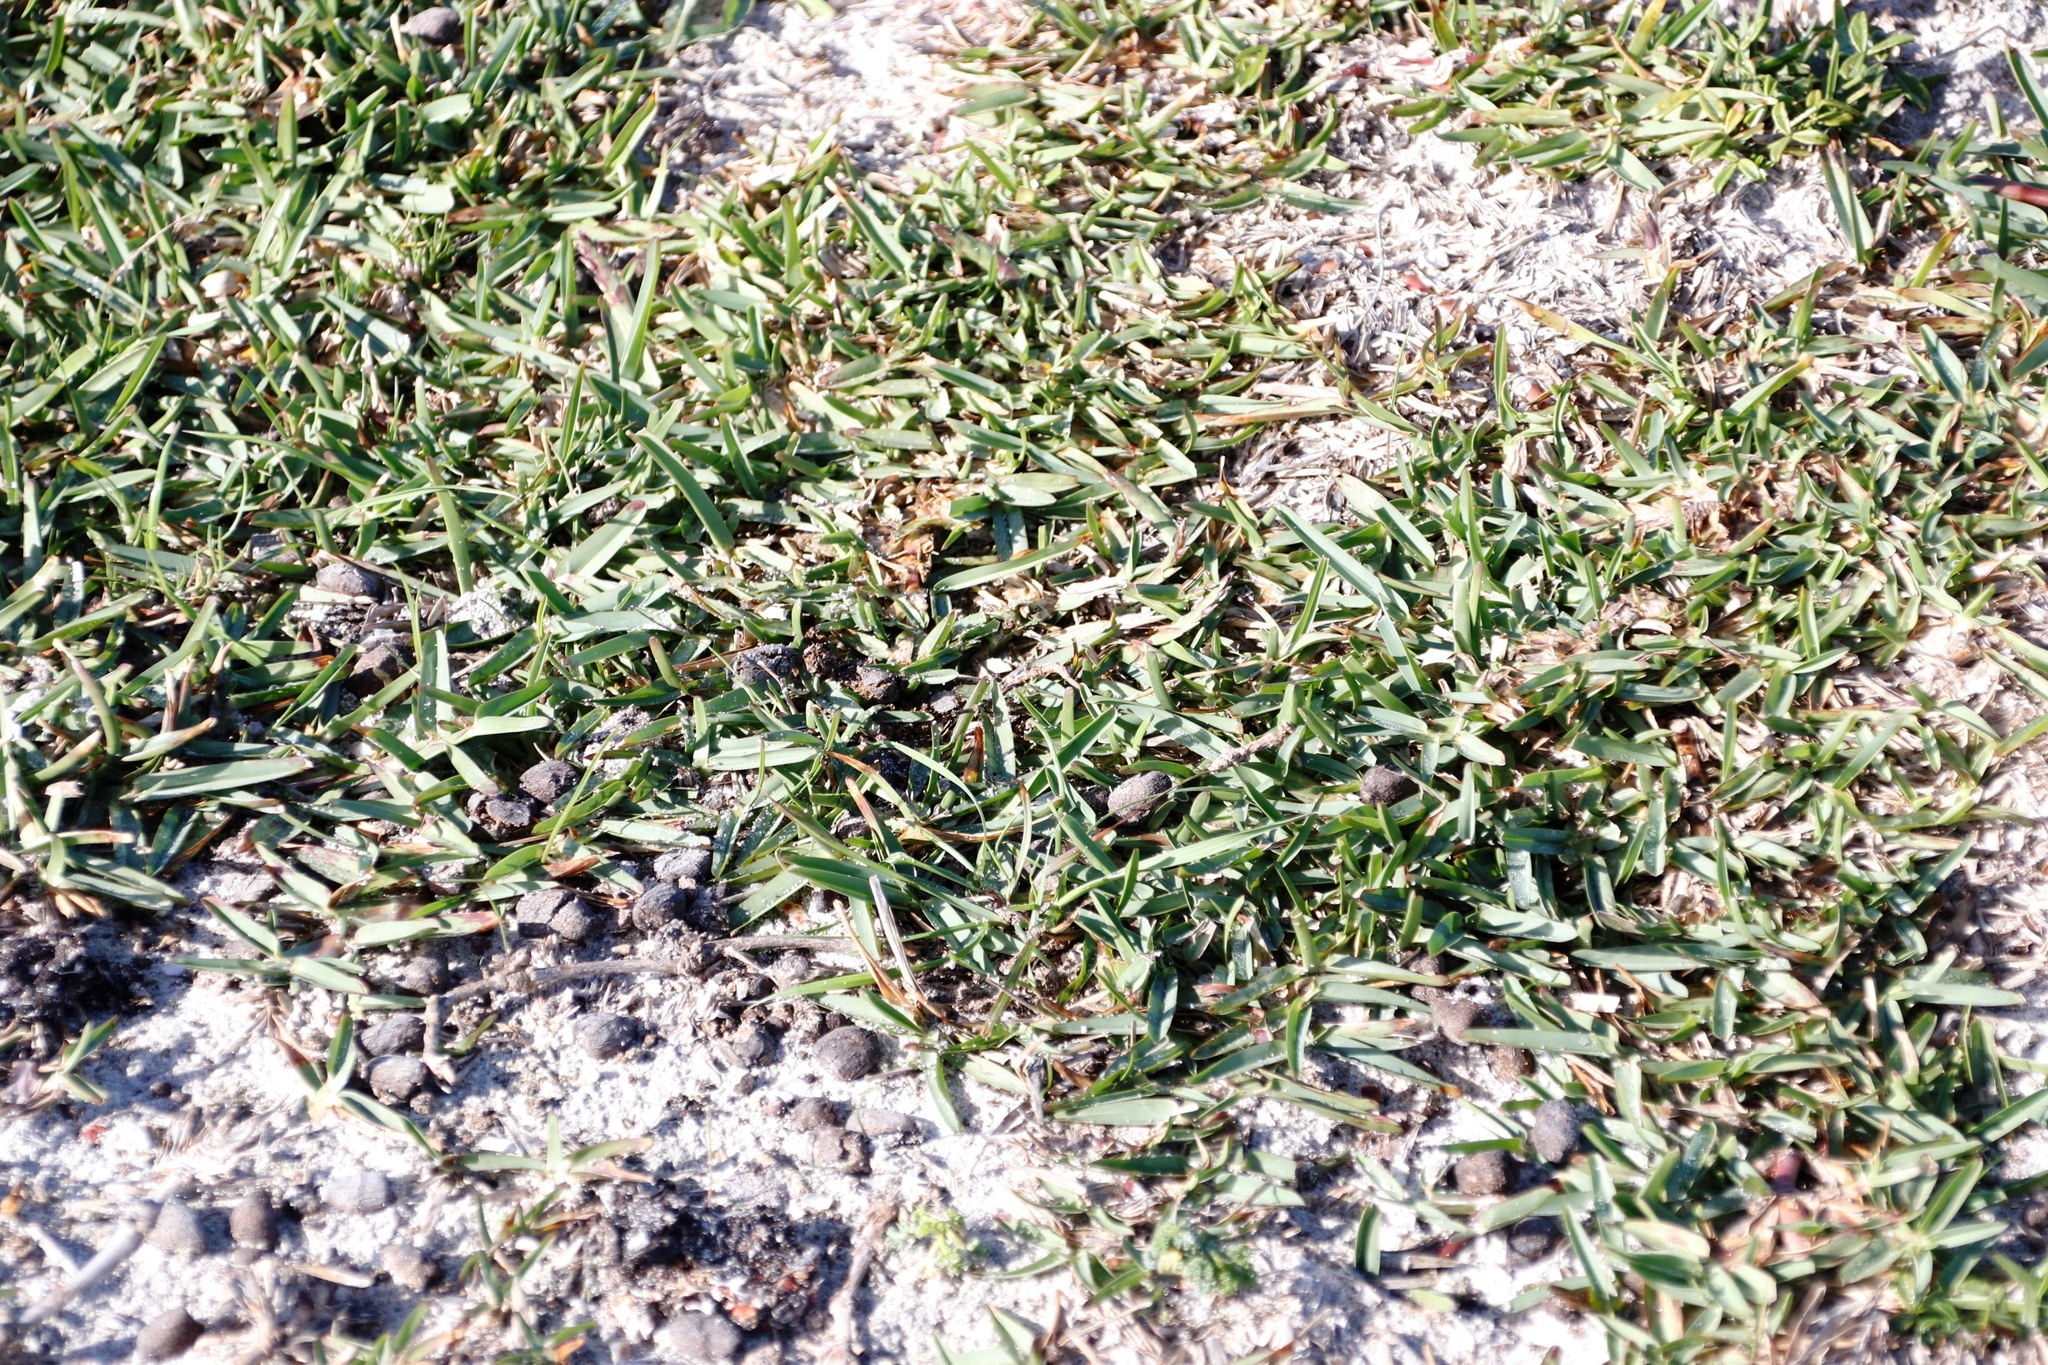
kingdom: Plantae
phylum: Tracheophyta
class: Liliopsida
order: Poales
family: Poaceae
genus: Stenotaphrum
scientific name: Stenotaphrum secundatum
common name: St. augustine grass
